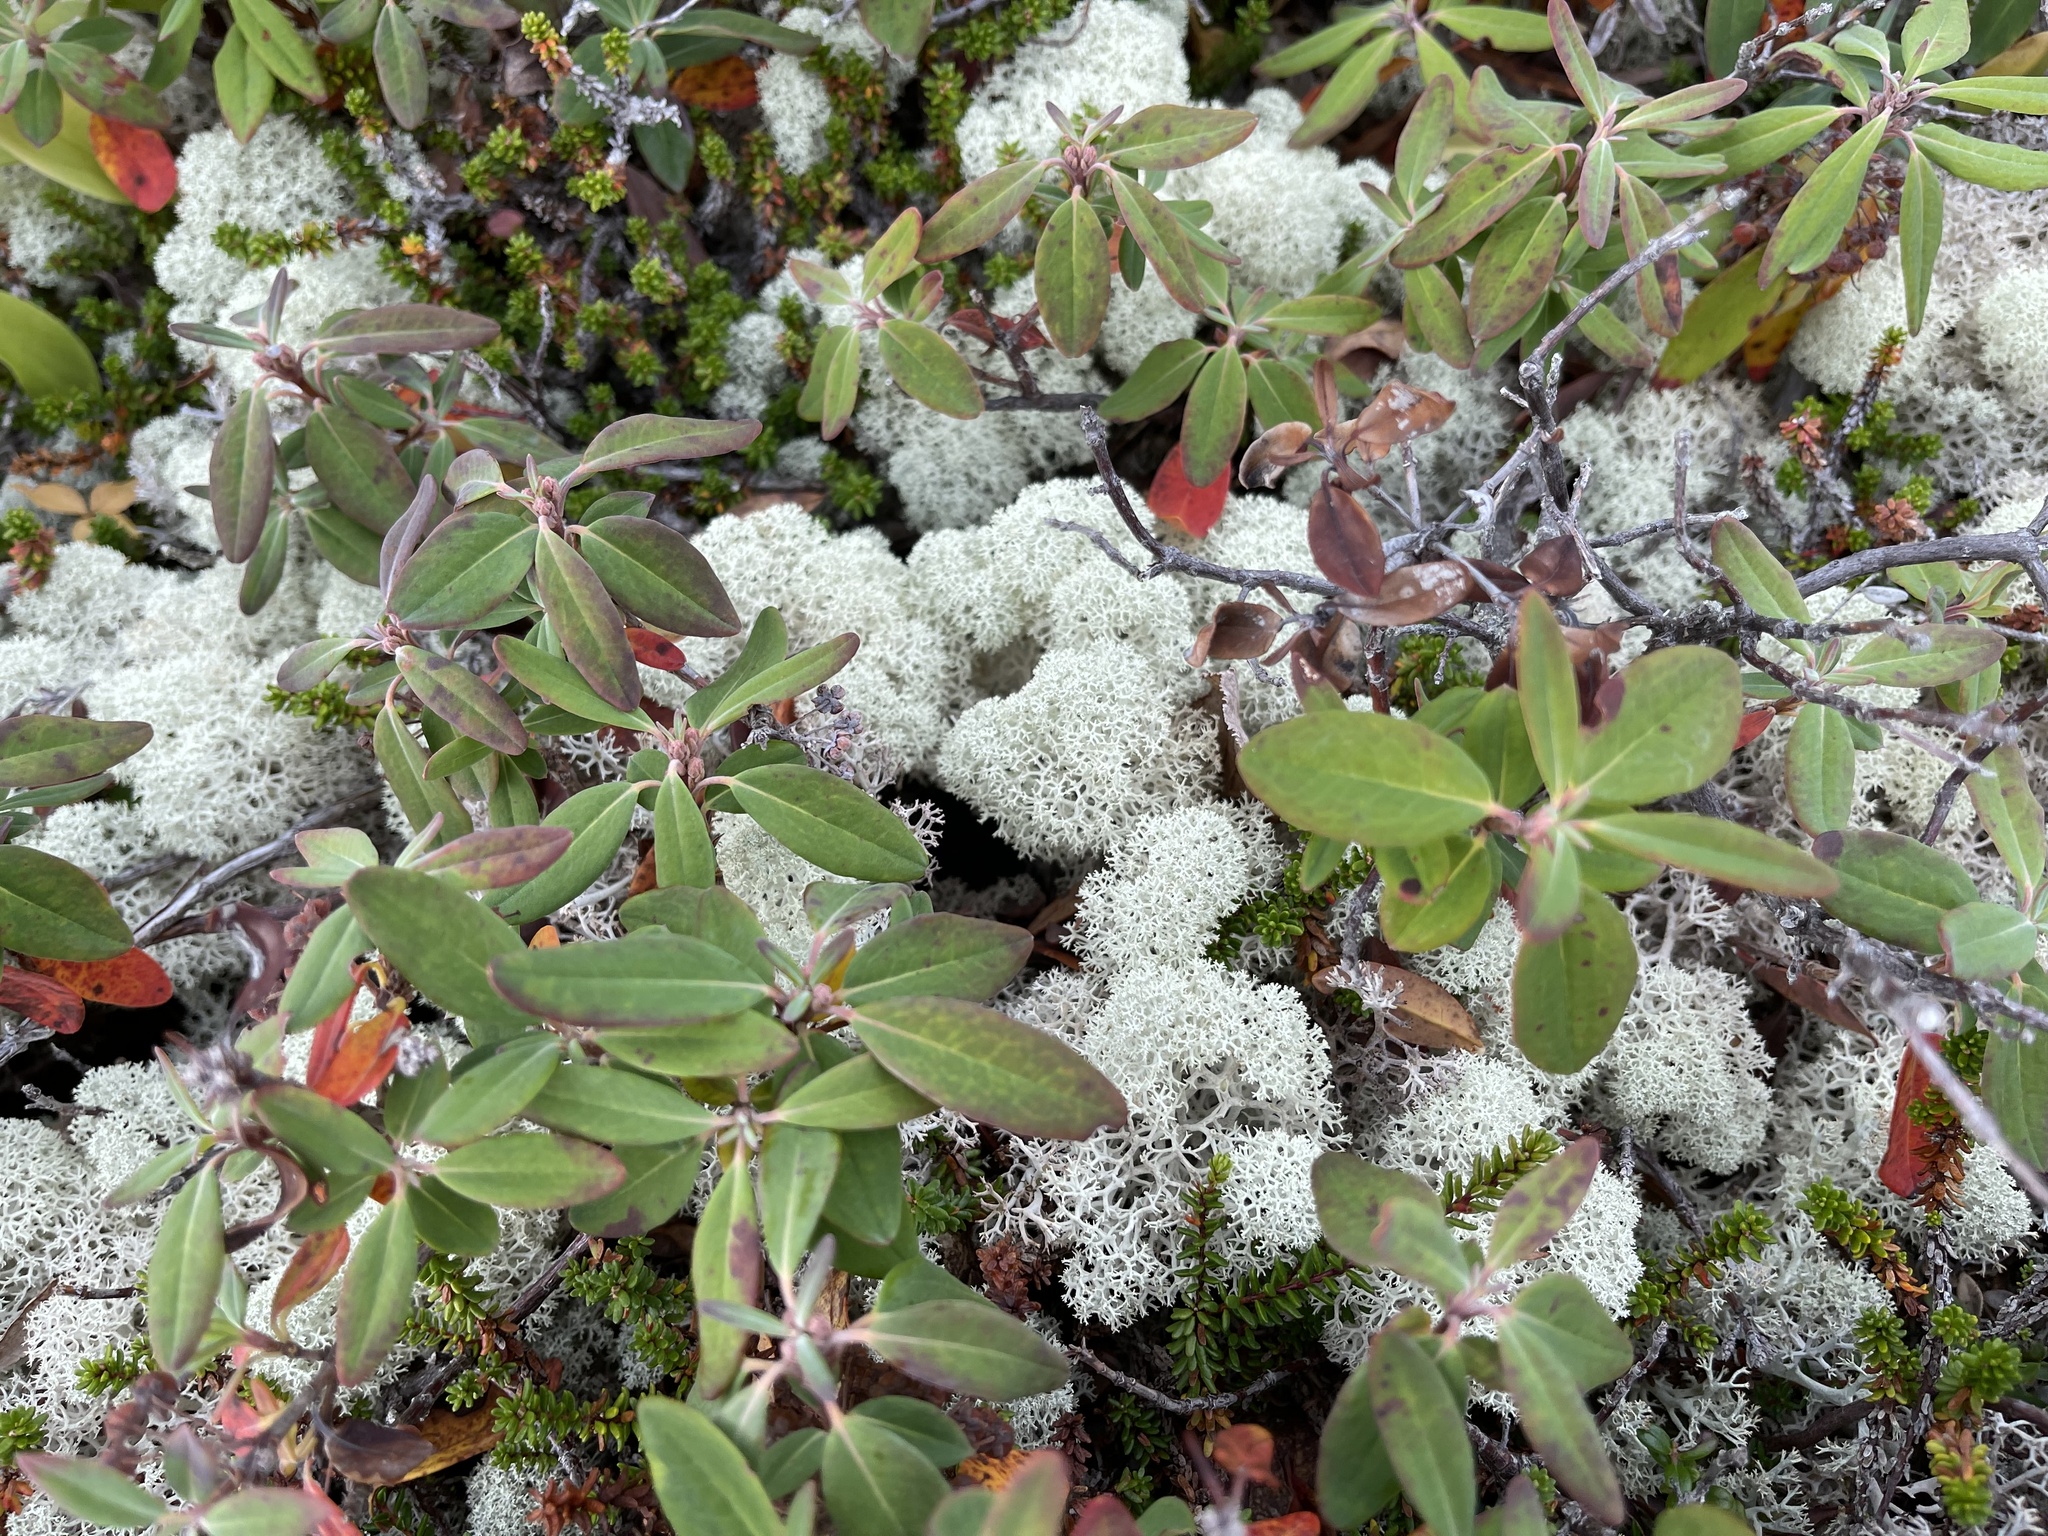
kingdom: Fungi
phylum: Ascomycota
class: Lecanoromycetes
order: Lecanorales
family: Cladoniaceae
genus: Cladonia
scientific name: Cladonia stellaris
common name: Star-tipped reindeer lichen
